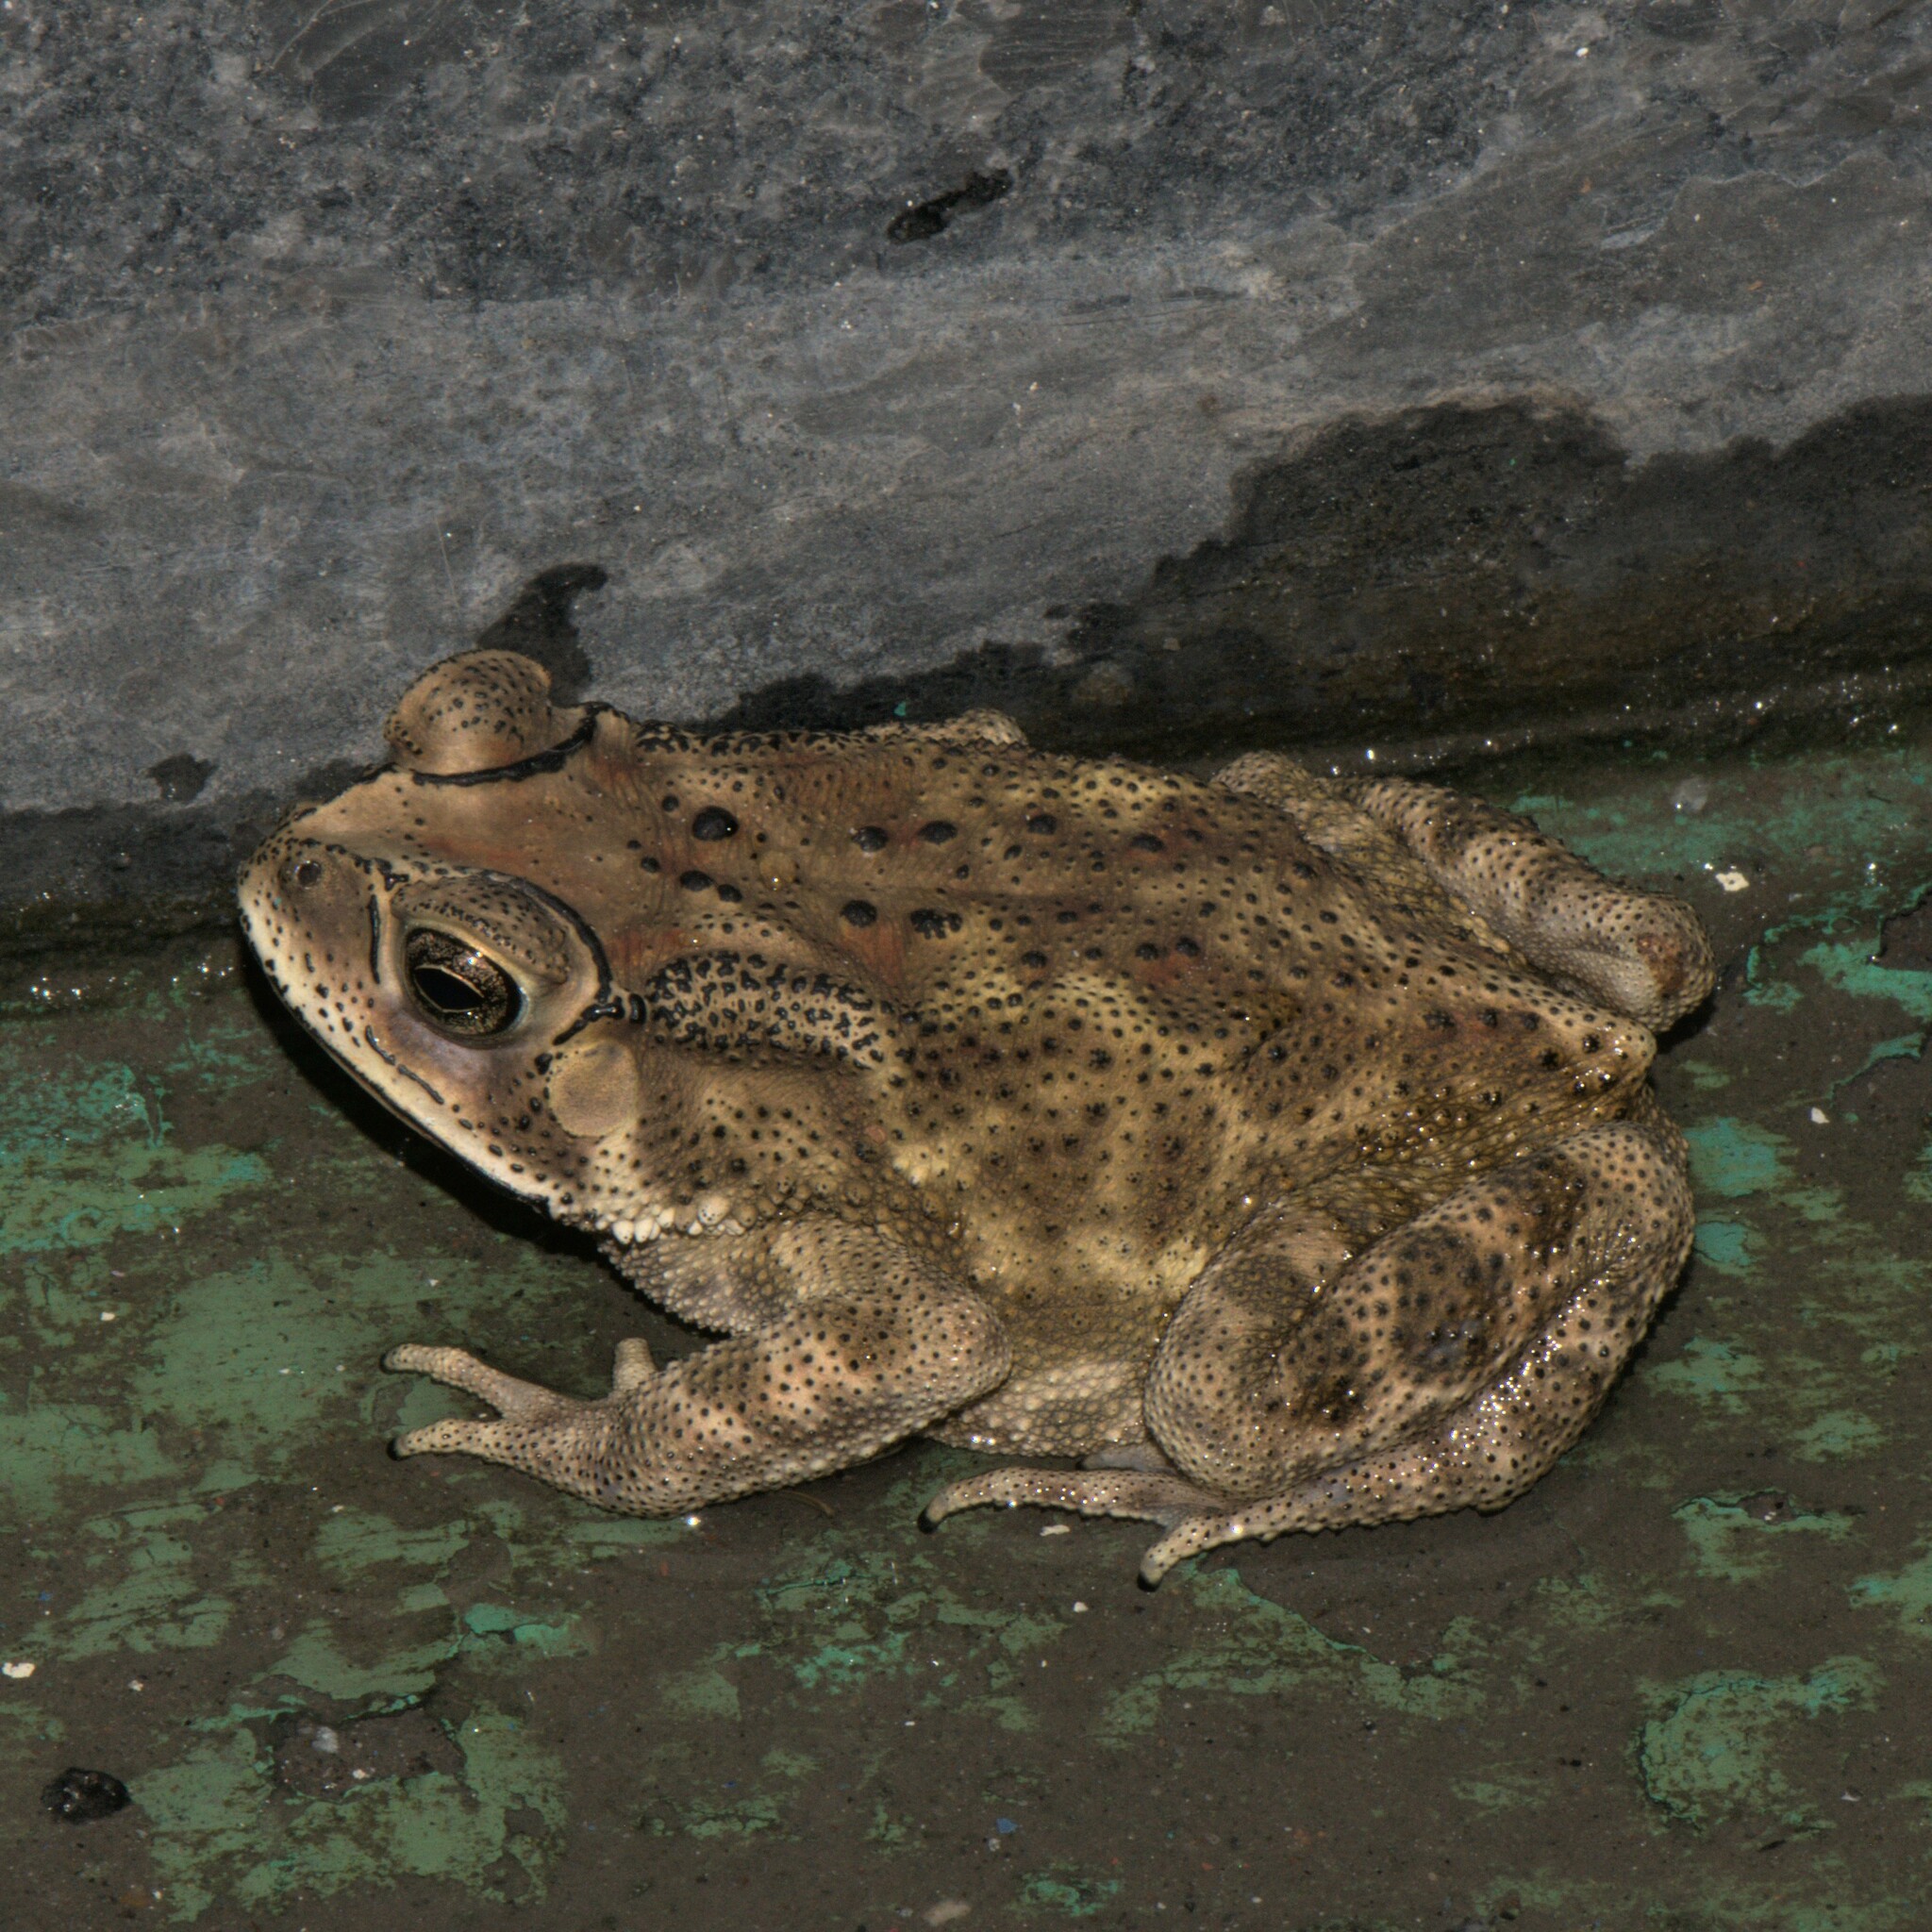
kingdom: Animalia
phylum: Chordata
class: Amphibia
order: Anura
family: Bufonidae
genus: Duttaphrynus
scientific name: Duttaphrynus melanostictus
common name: Common sunda toad
